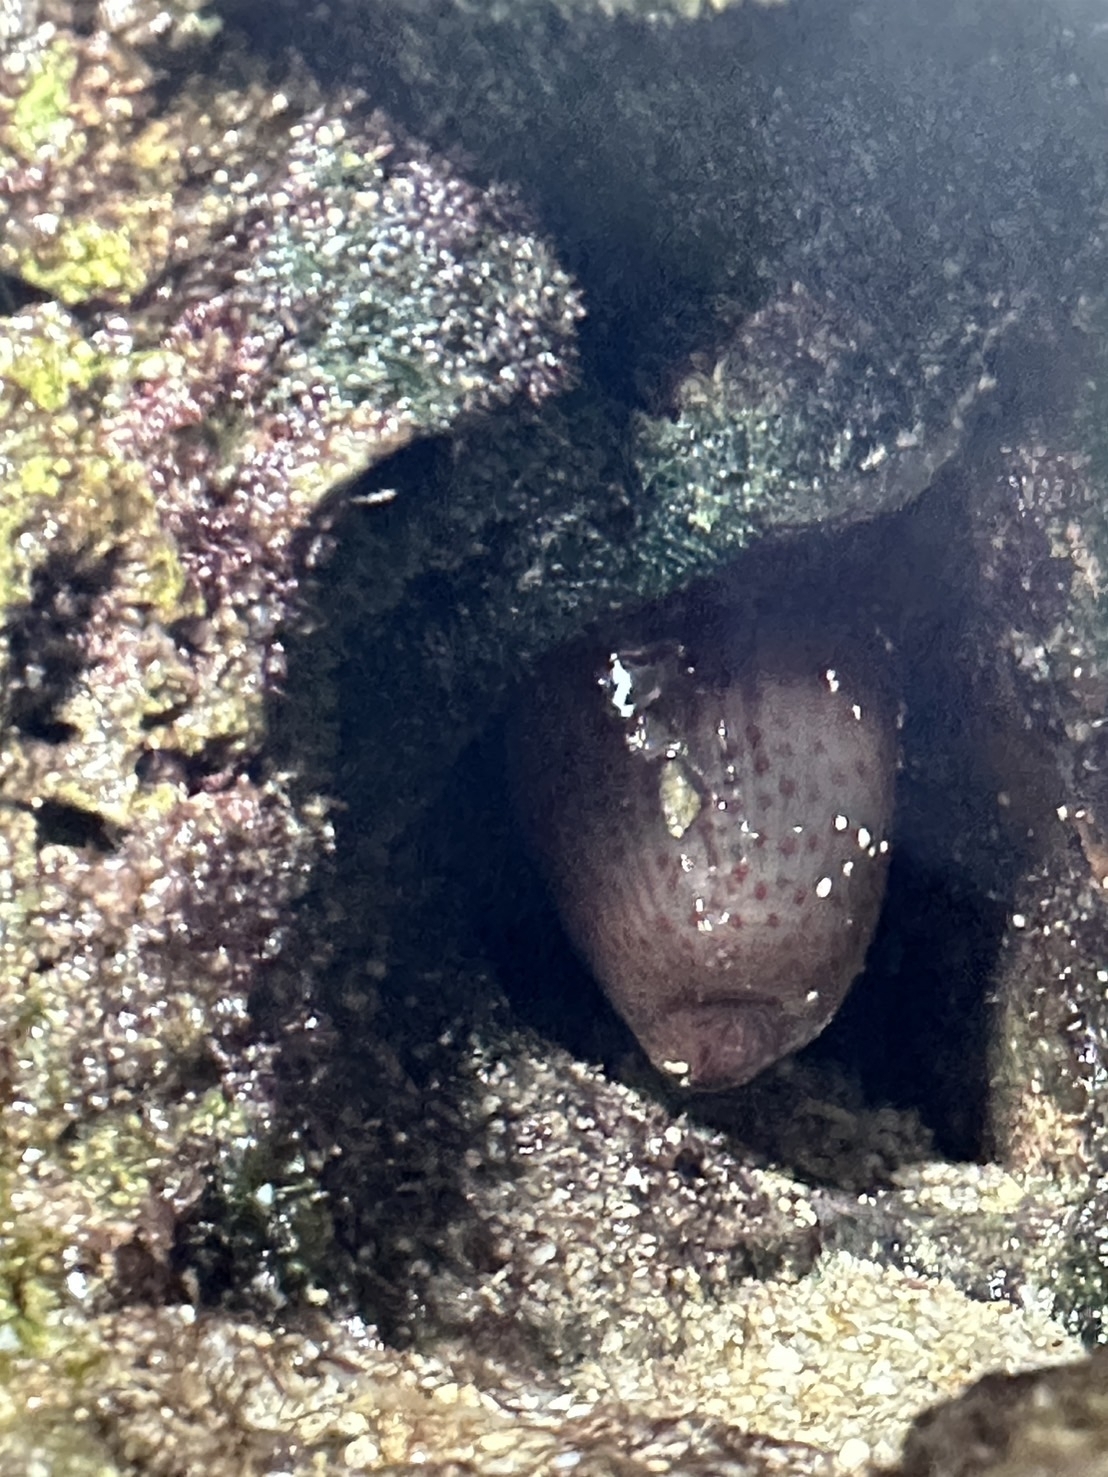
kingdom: Animalia
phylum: Cnidaria
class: Anthozoa
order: Actiniaria
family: Actiniidae
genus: Anthopleura
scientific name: Anthopleura buddemeieri
